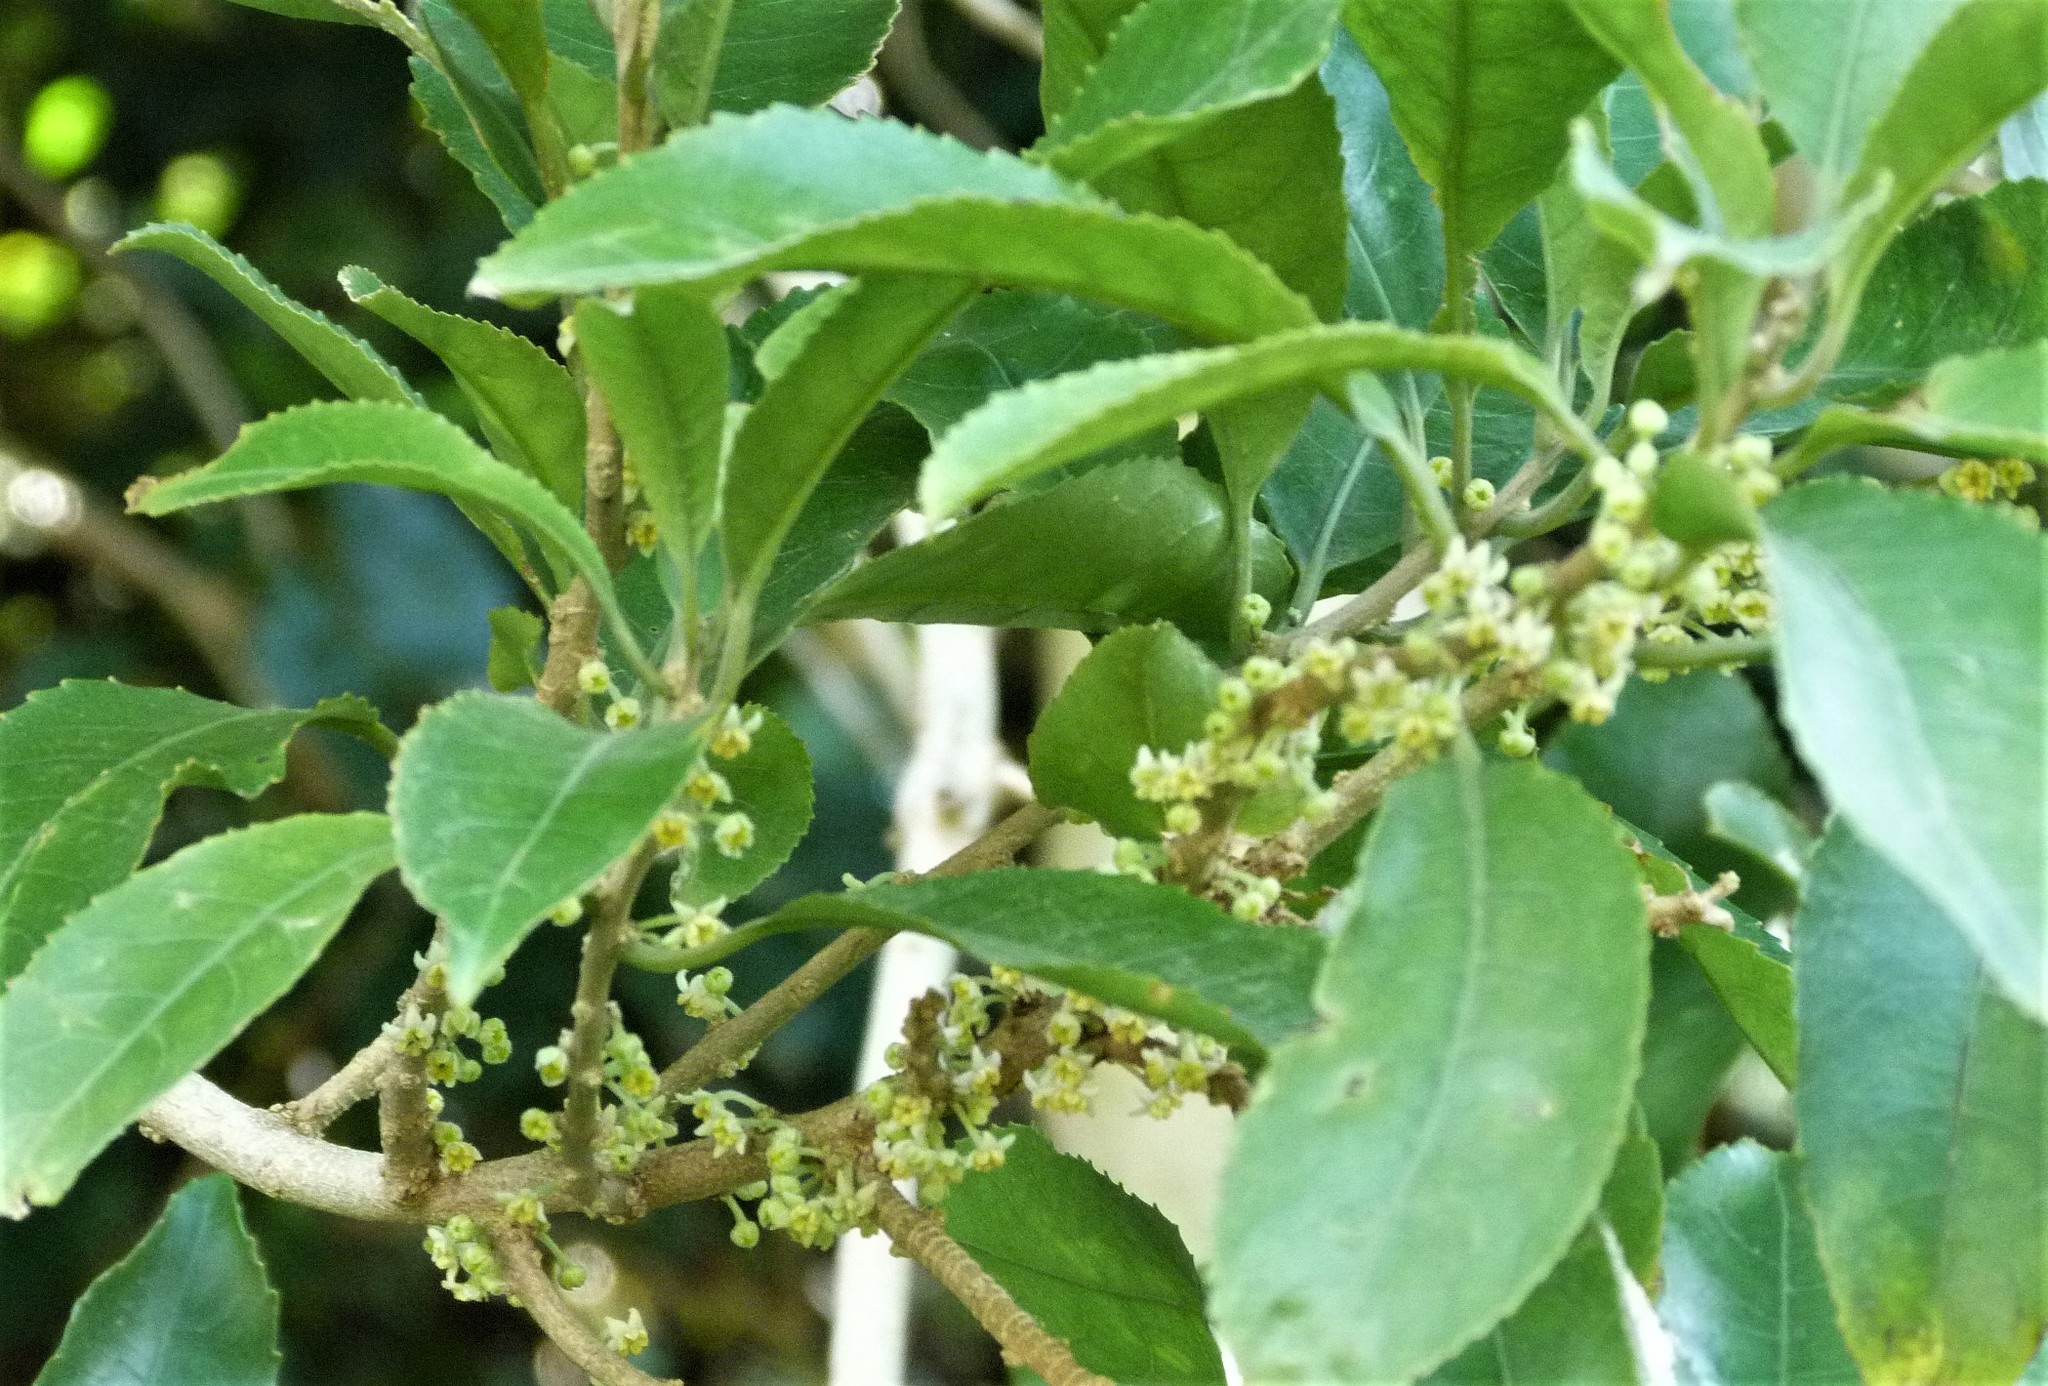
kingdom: Plantae
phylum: Tracheophyta
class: Magnoliopsida
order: Malpighiales
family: Violaceae
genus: Melicytus
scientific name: Melicytus ramiflorus
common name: Mahoe
